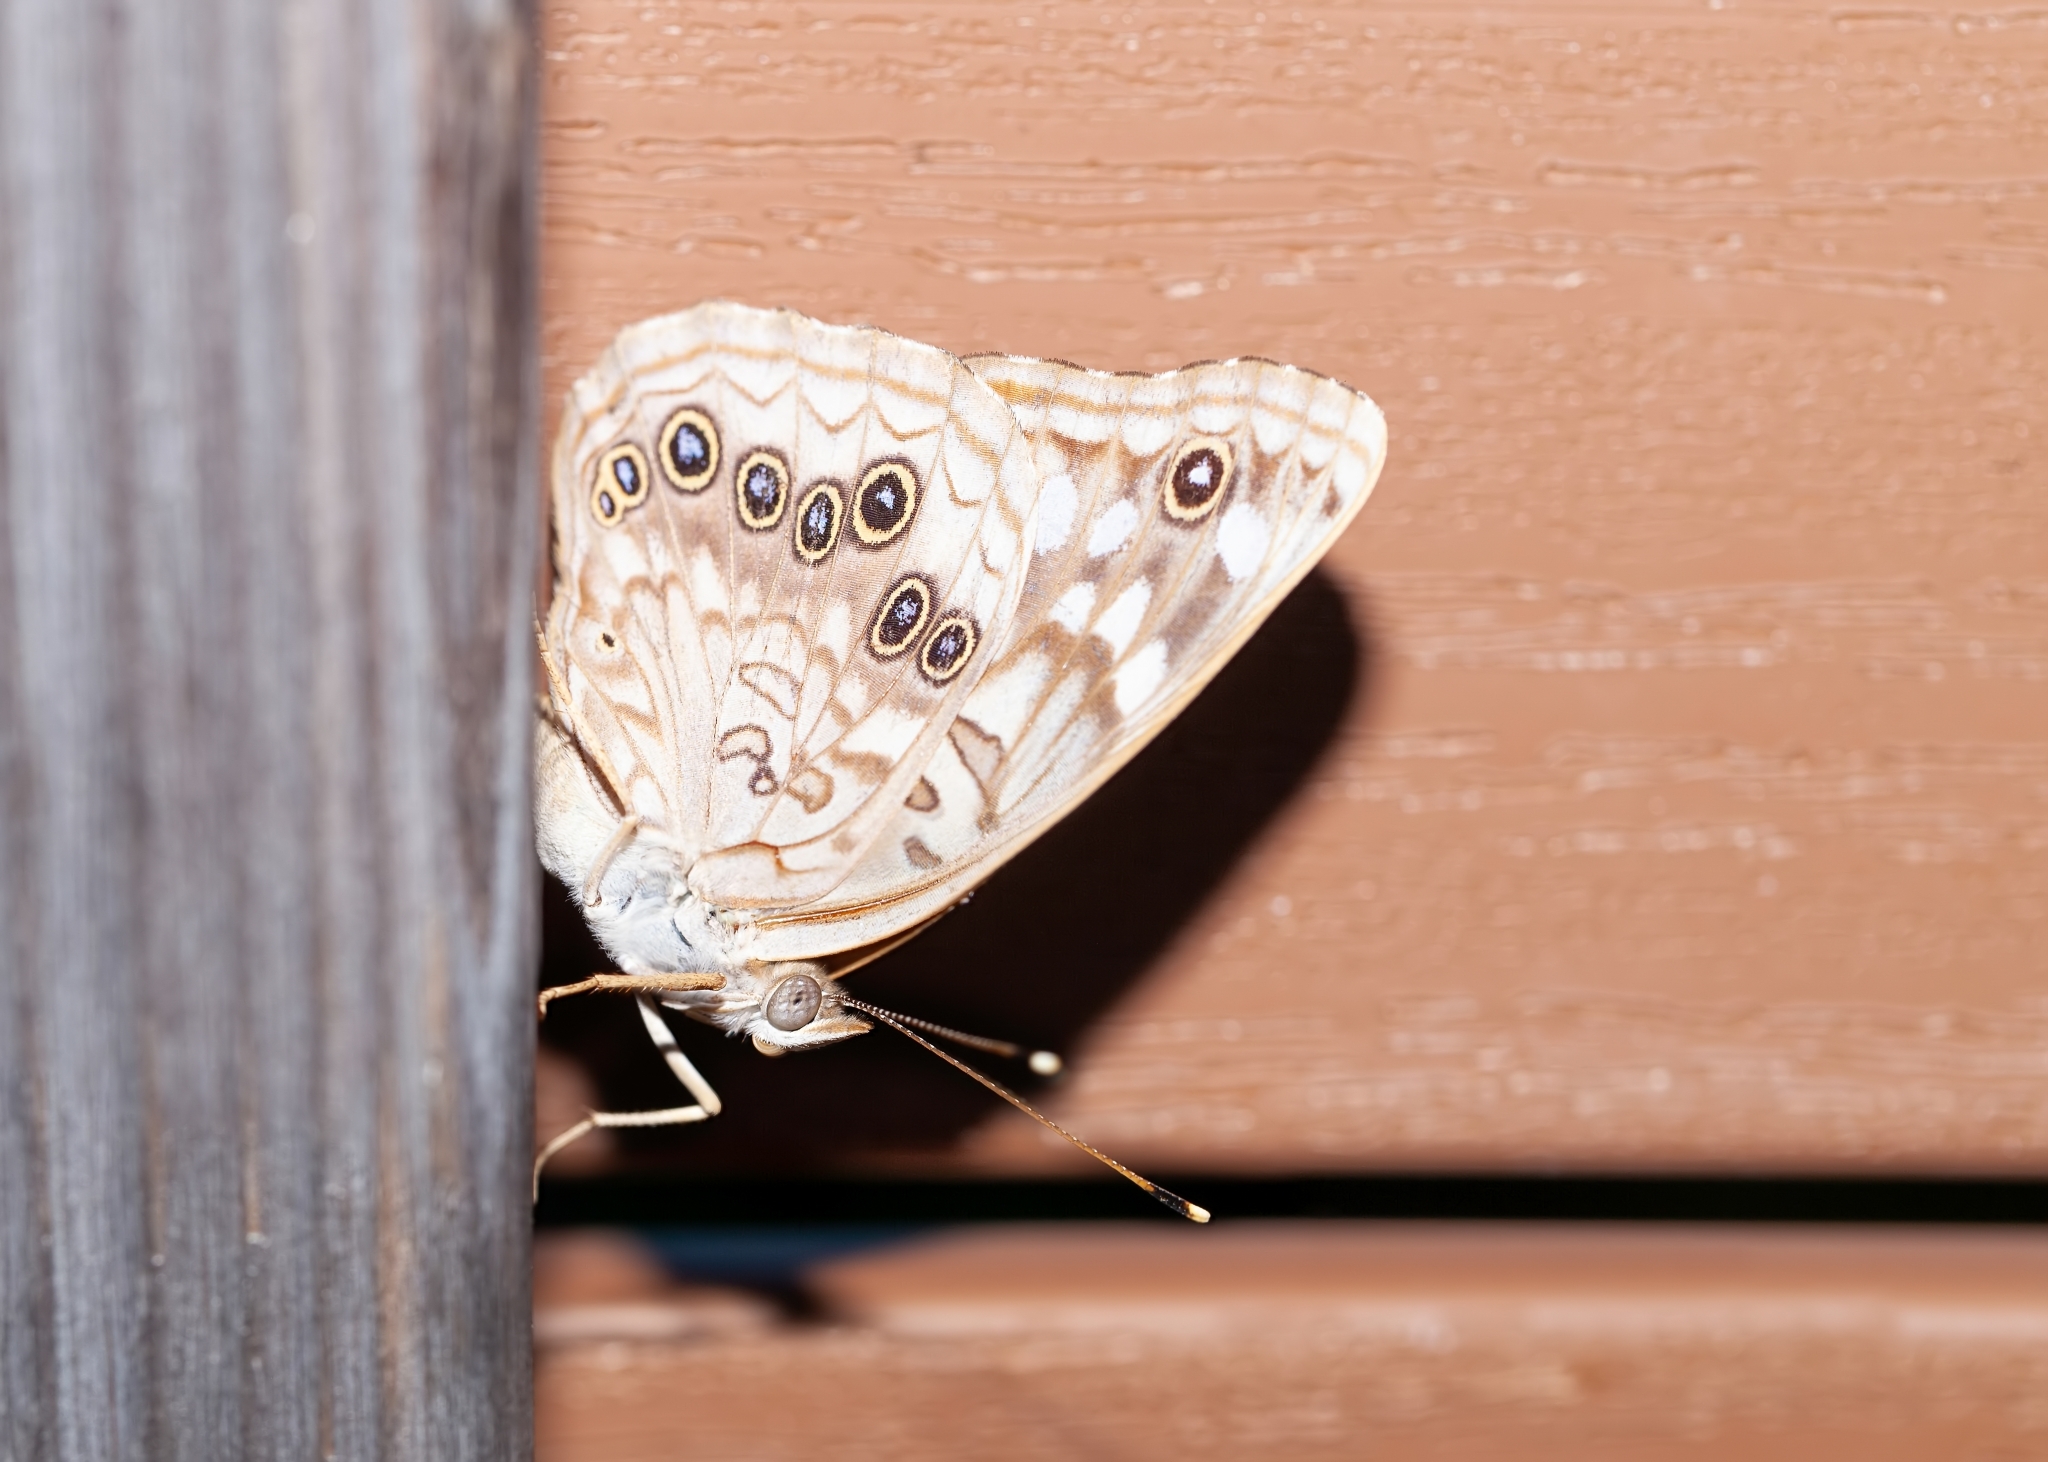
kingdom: Animalia
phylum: Arthropoda
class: Insecta
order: Lepidoptera
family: Nymphalidae
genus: Asterocampa
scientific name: Asterocampa celtis
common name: Hackberry emperor
